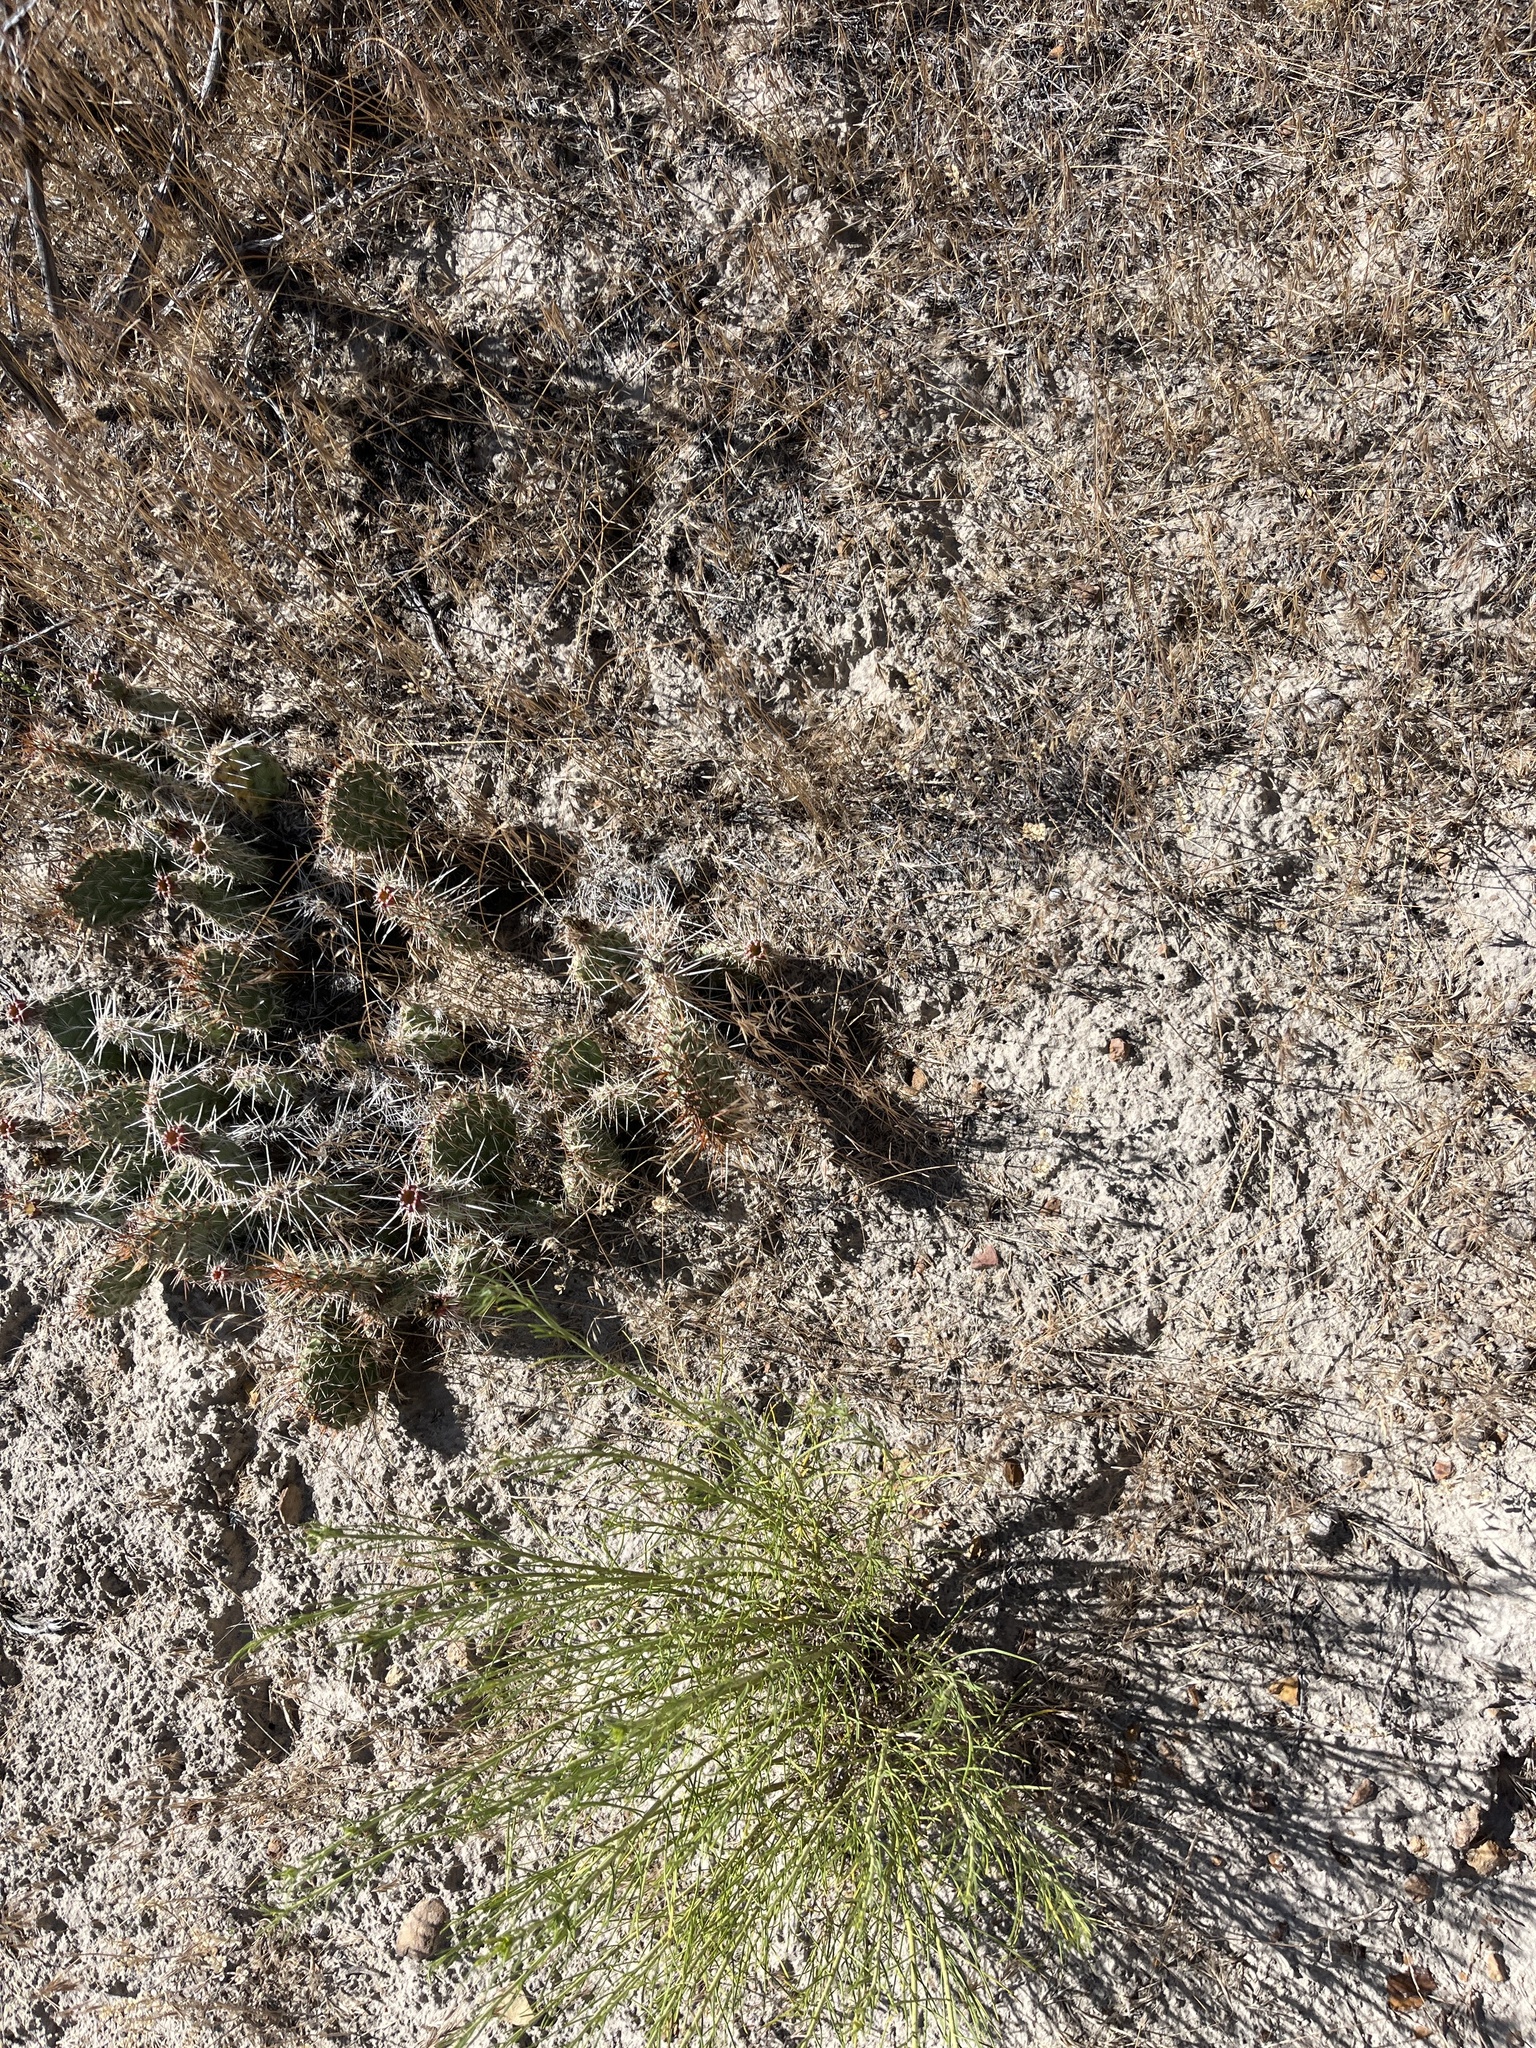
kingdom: Plantae
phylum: Tracheophyta
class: Magnoliopsida
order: Caryophyllales
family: Cactaceae
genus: Opuntia
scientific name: Opuntia polyacantha
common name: Plains prickly-pear
